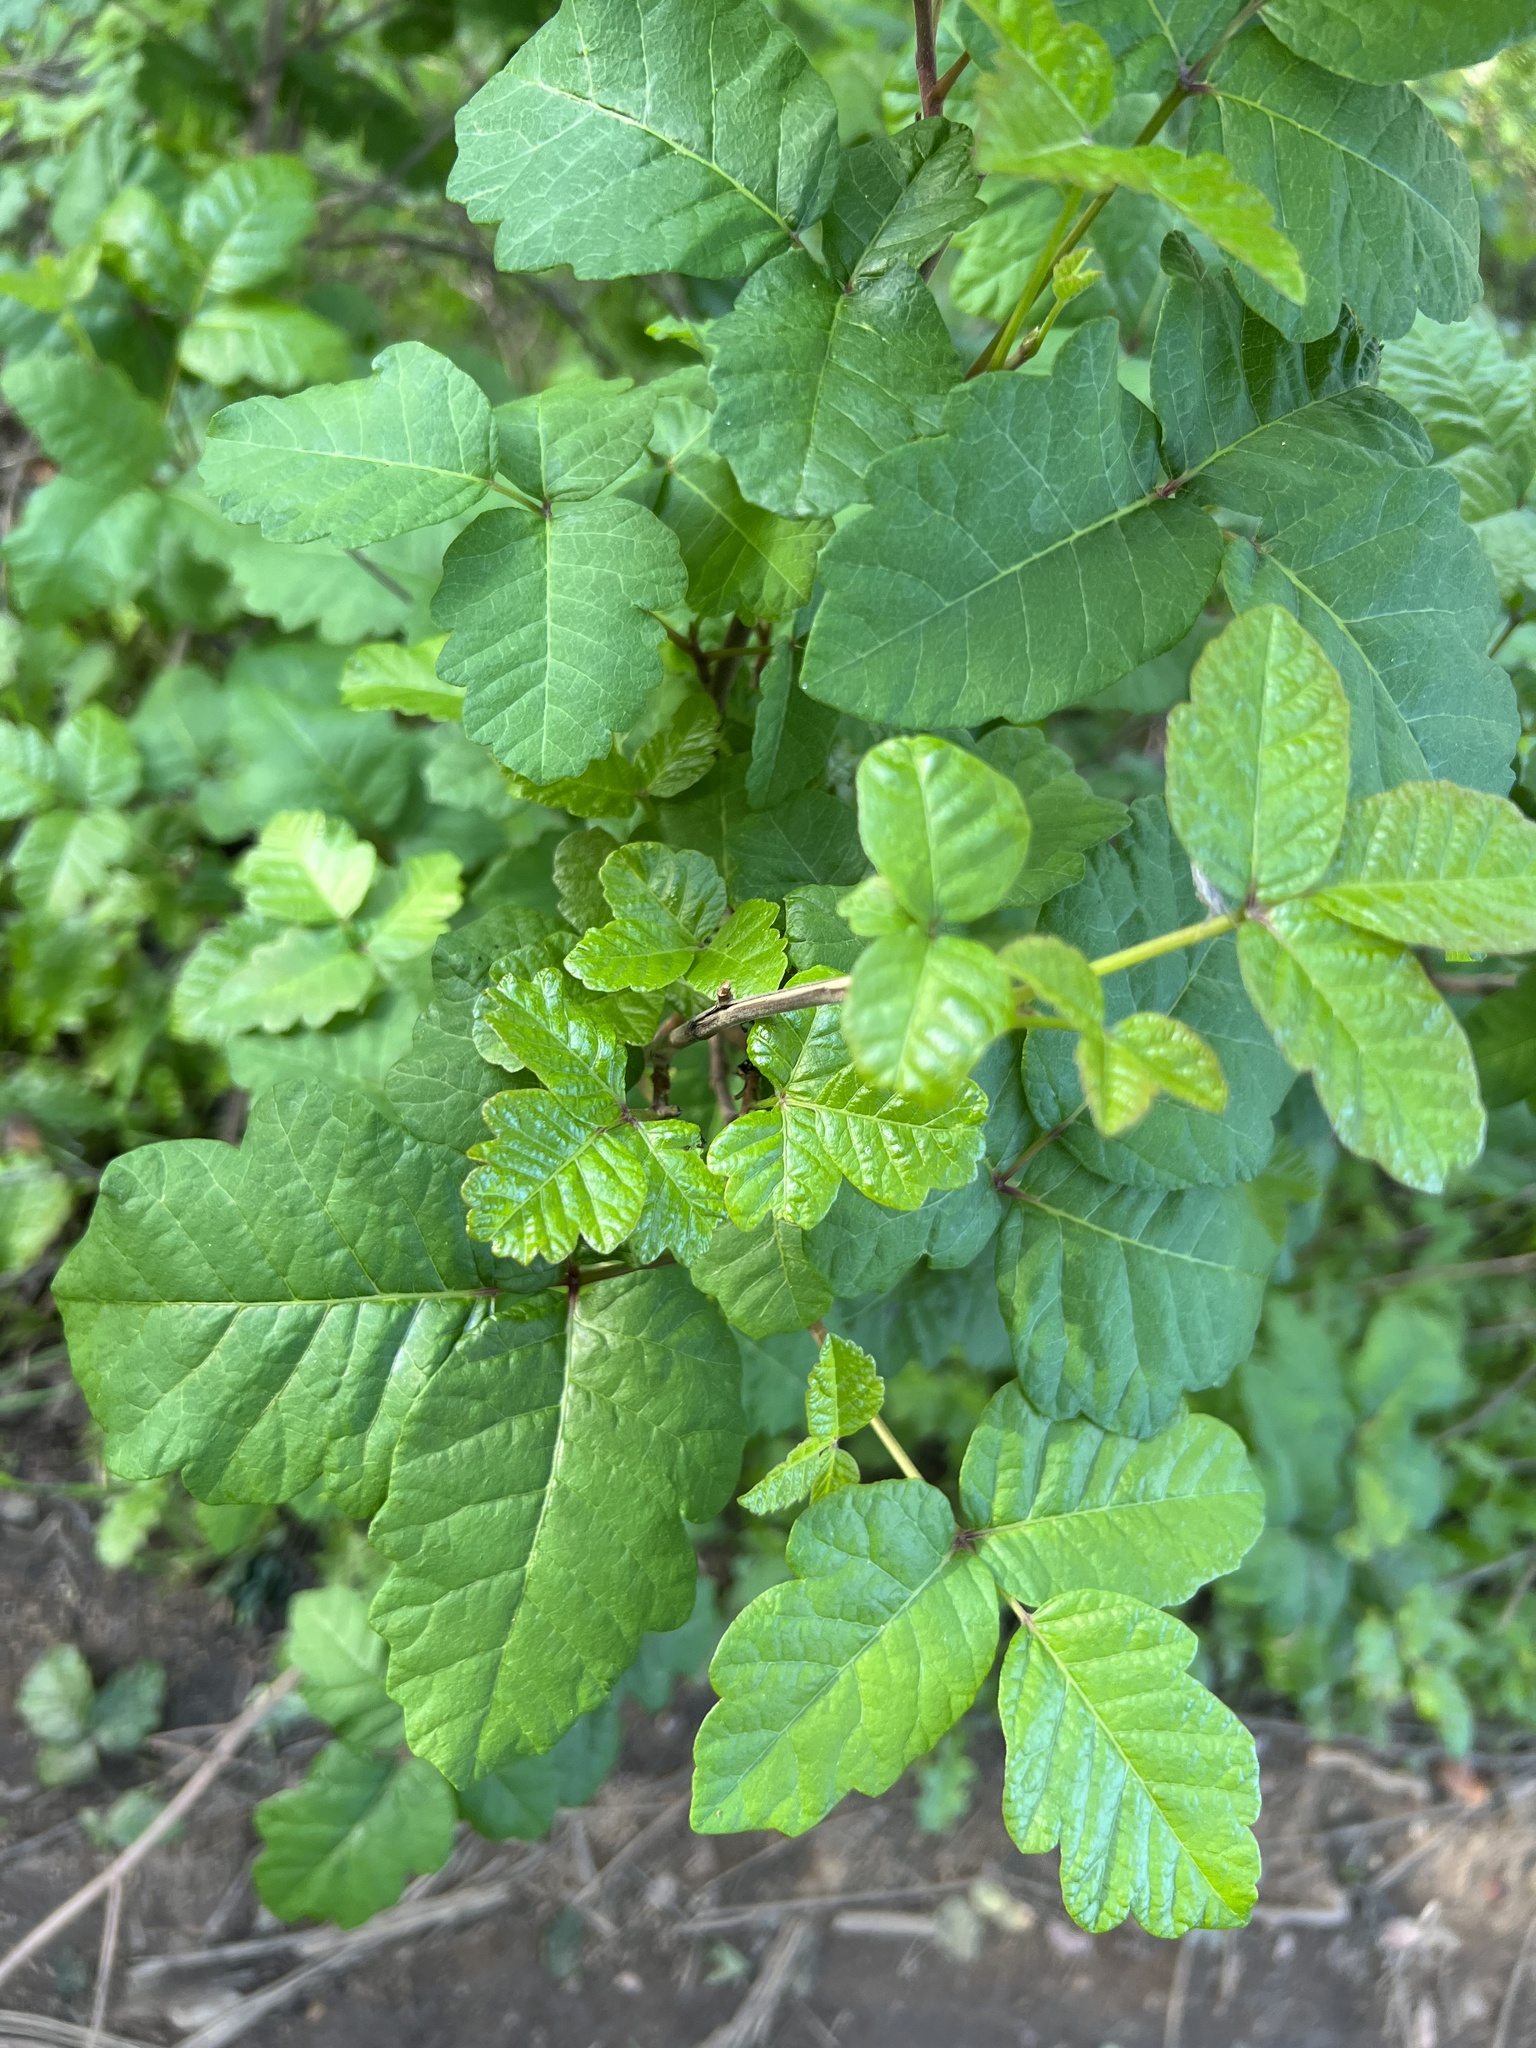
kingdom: Plantae
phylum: Tracheophyta
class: Magnoliopsida
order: Sapindales
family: Anacardiaceae
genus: Toxicodendron
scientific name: Toxicodendron diversilobum
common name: Pacific poison-oak
